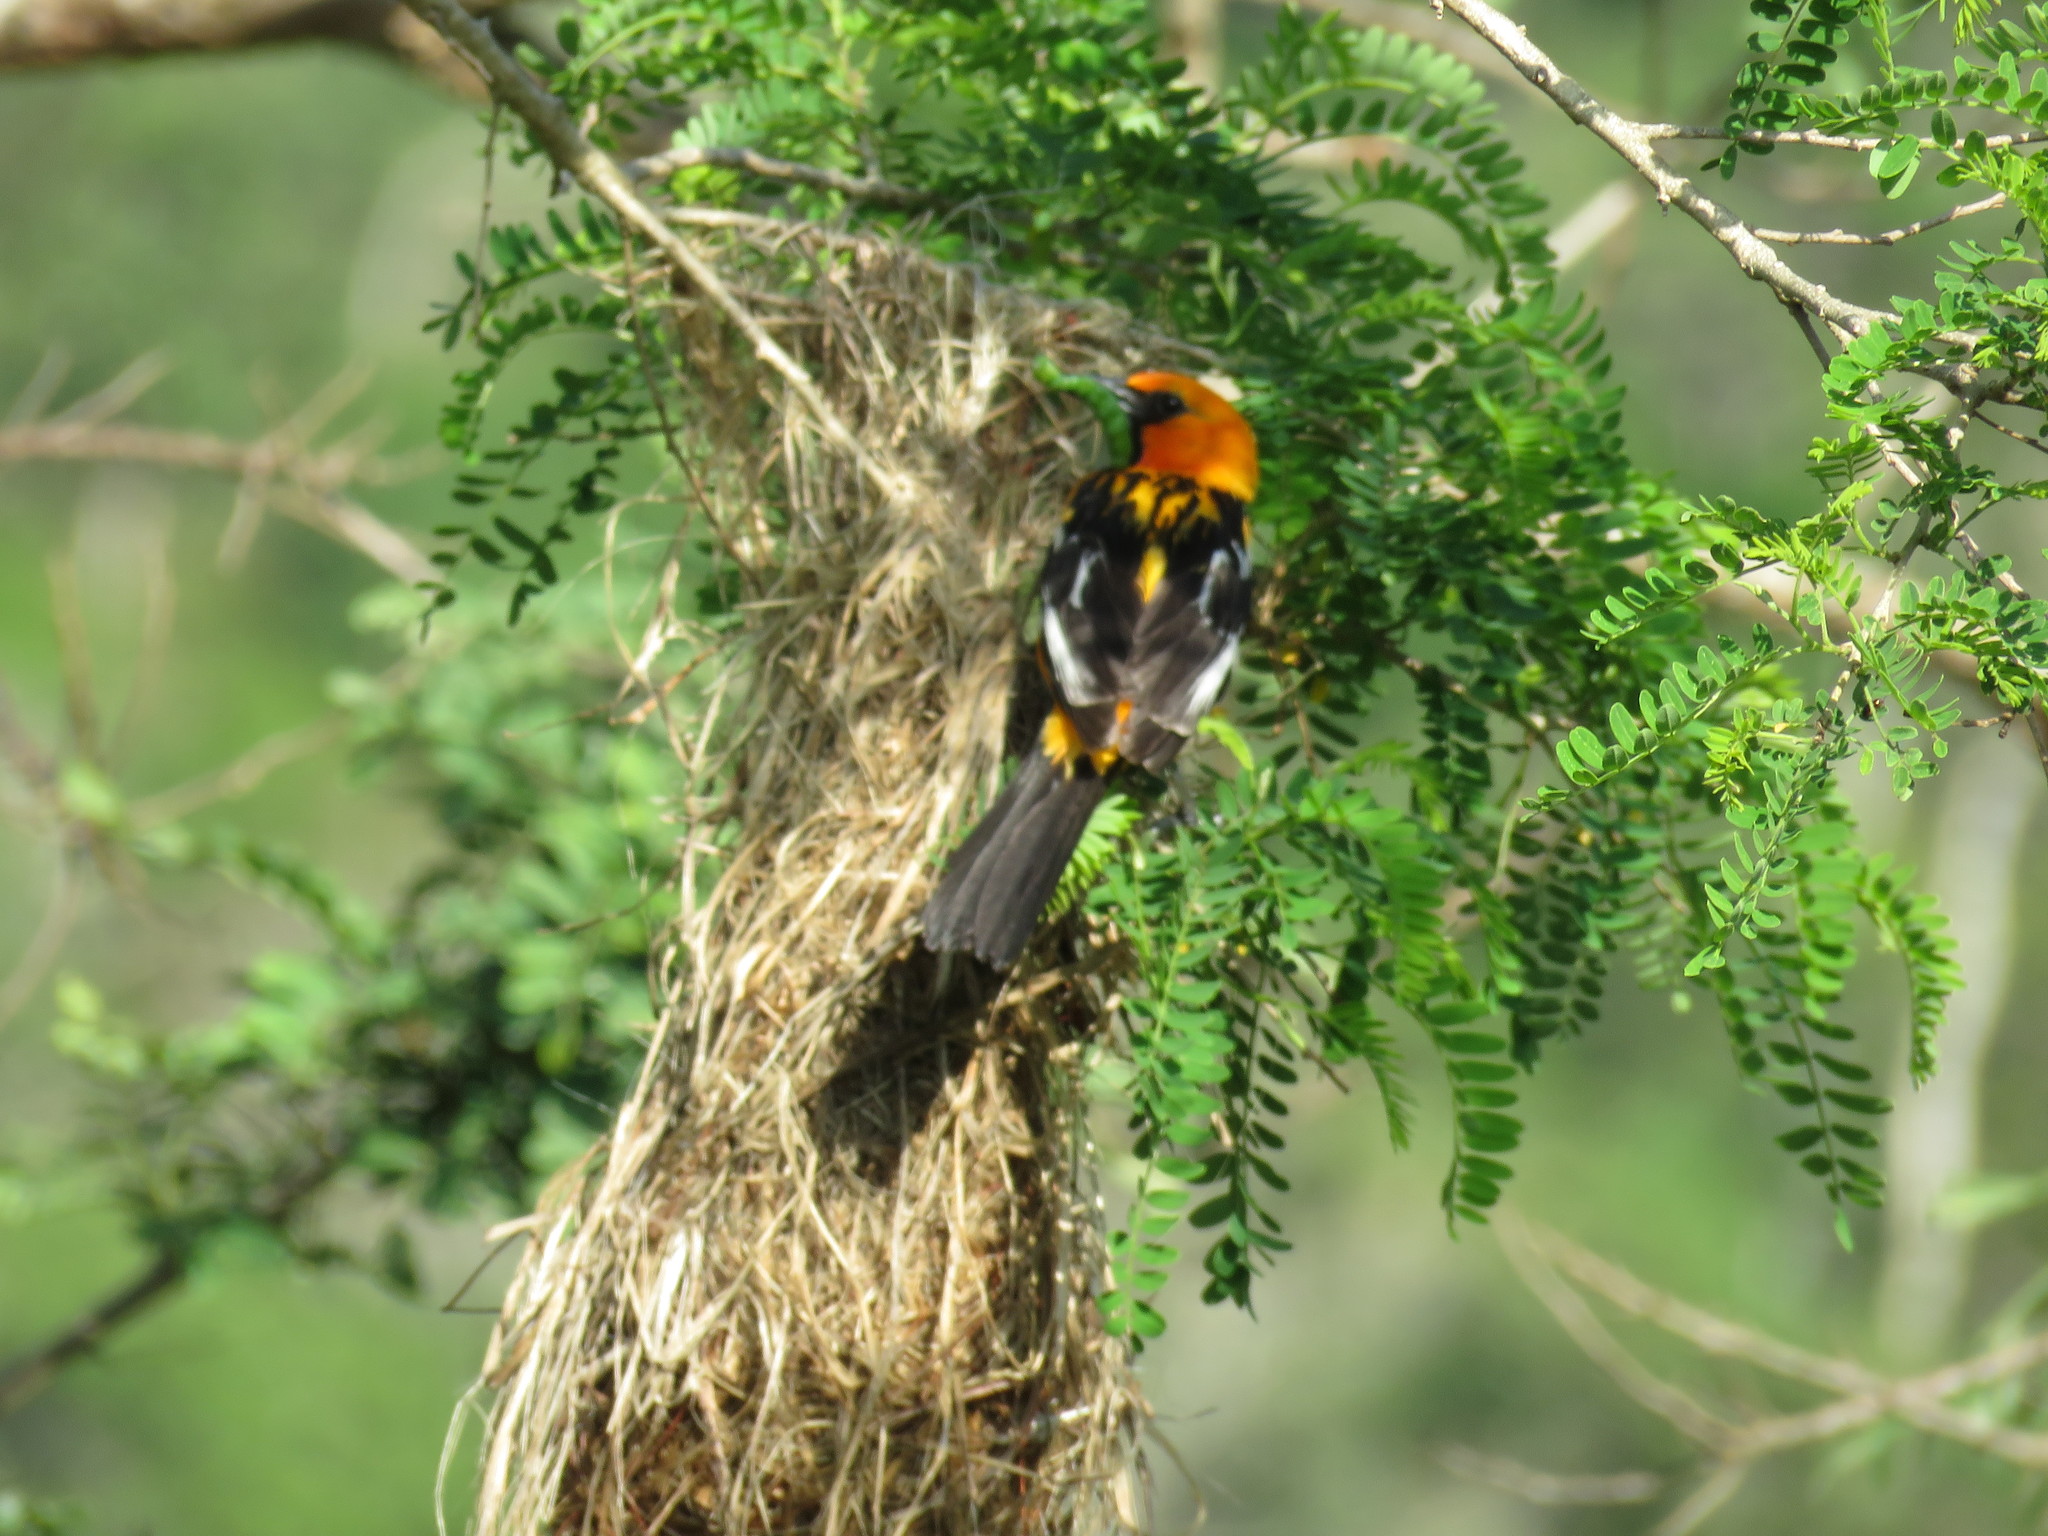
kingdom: Animalia
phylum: Chordata
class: Aves
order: Passeriformes
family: Icteridae
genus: Icterus
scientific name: Icterus pustulatus
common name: Streak-backed oriole
